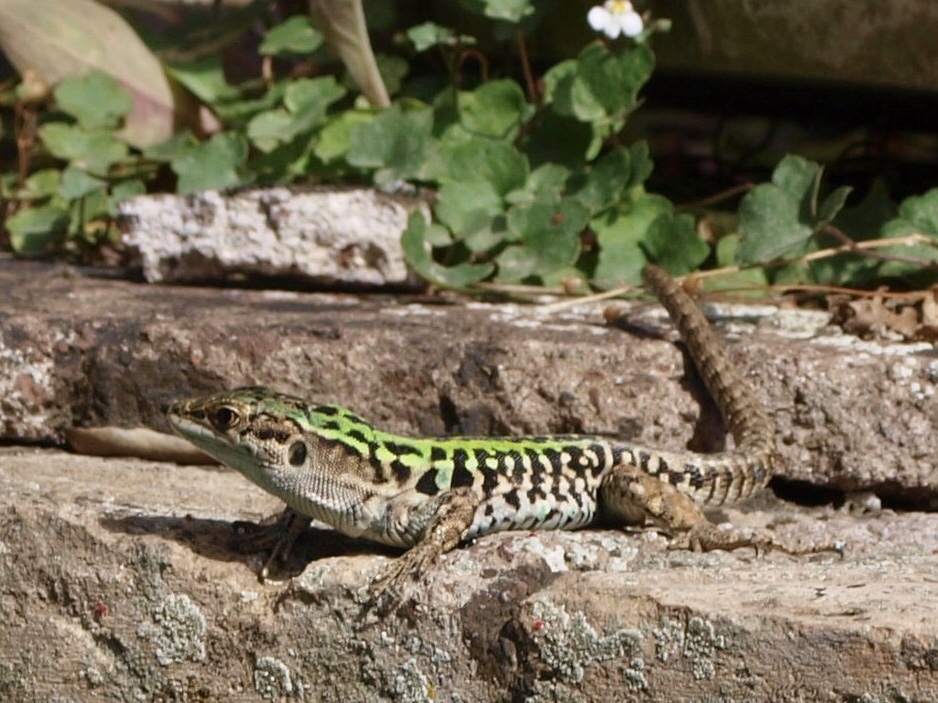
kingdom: Animalia
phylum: Chordata
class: Squamata
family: Lacertidae
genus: Podarcis
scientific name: Podarcis siculus
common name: Italian wall lizard
